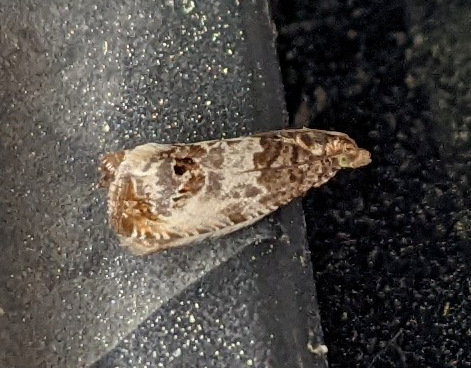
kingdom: Animalia
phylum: Arthropoda
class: Insecta
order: Lepidoptera
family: Tortricidae
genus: Notocelia
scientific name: Notocelia rosaecolana
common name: Common rose bell
